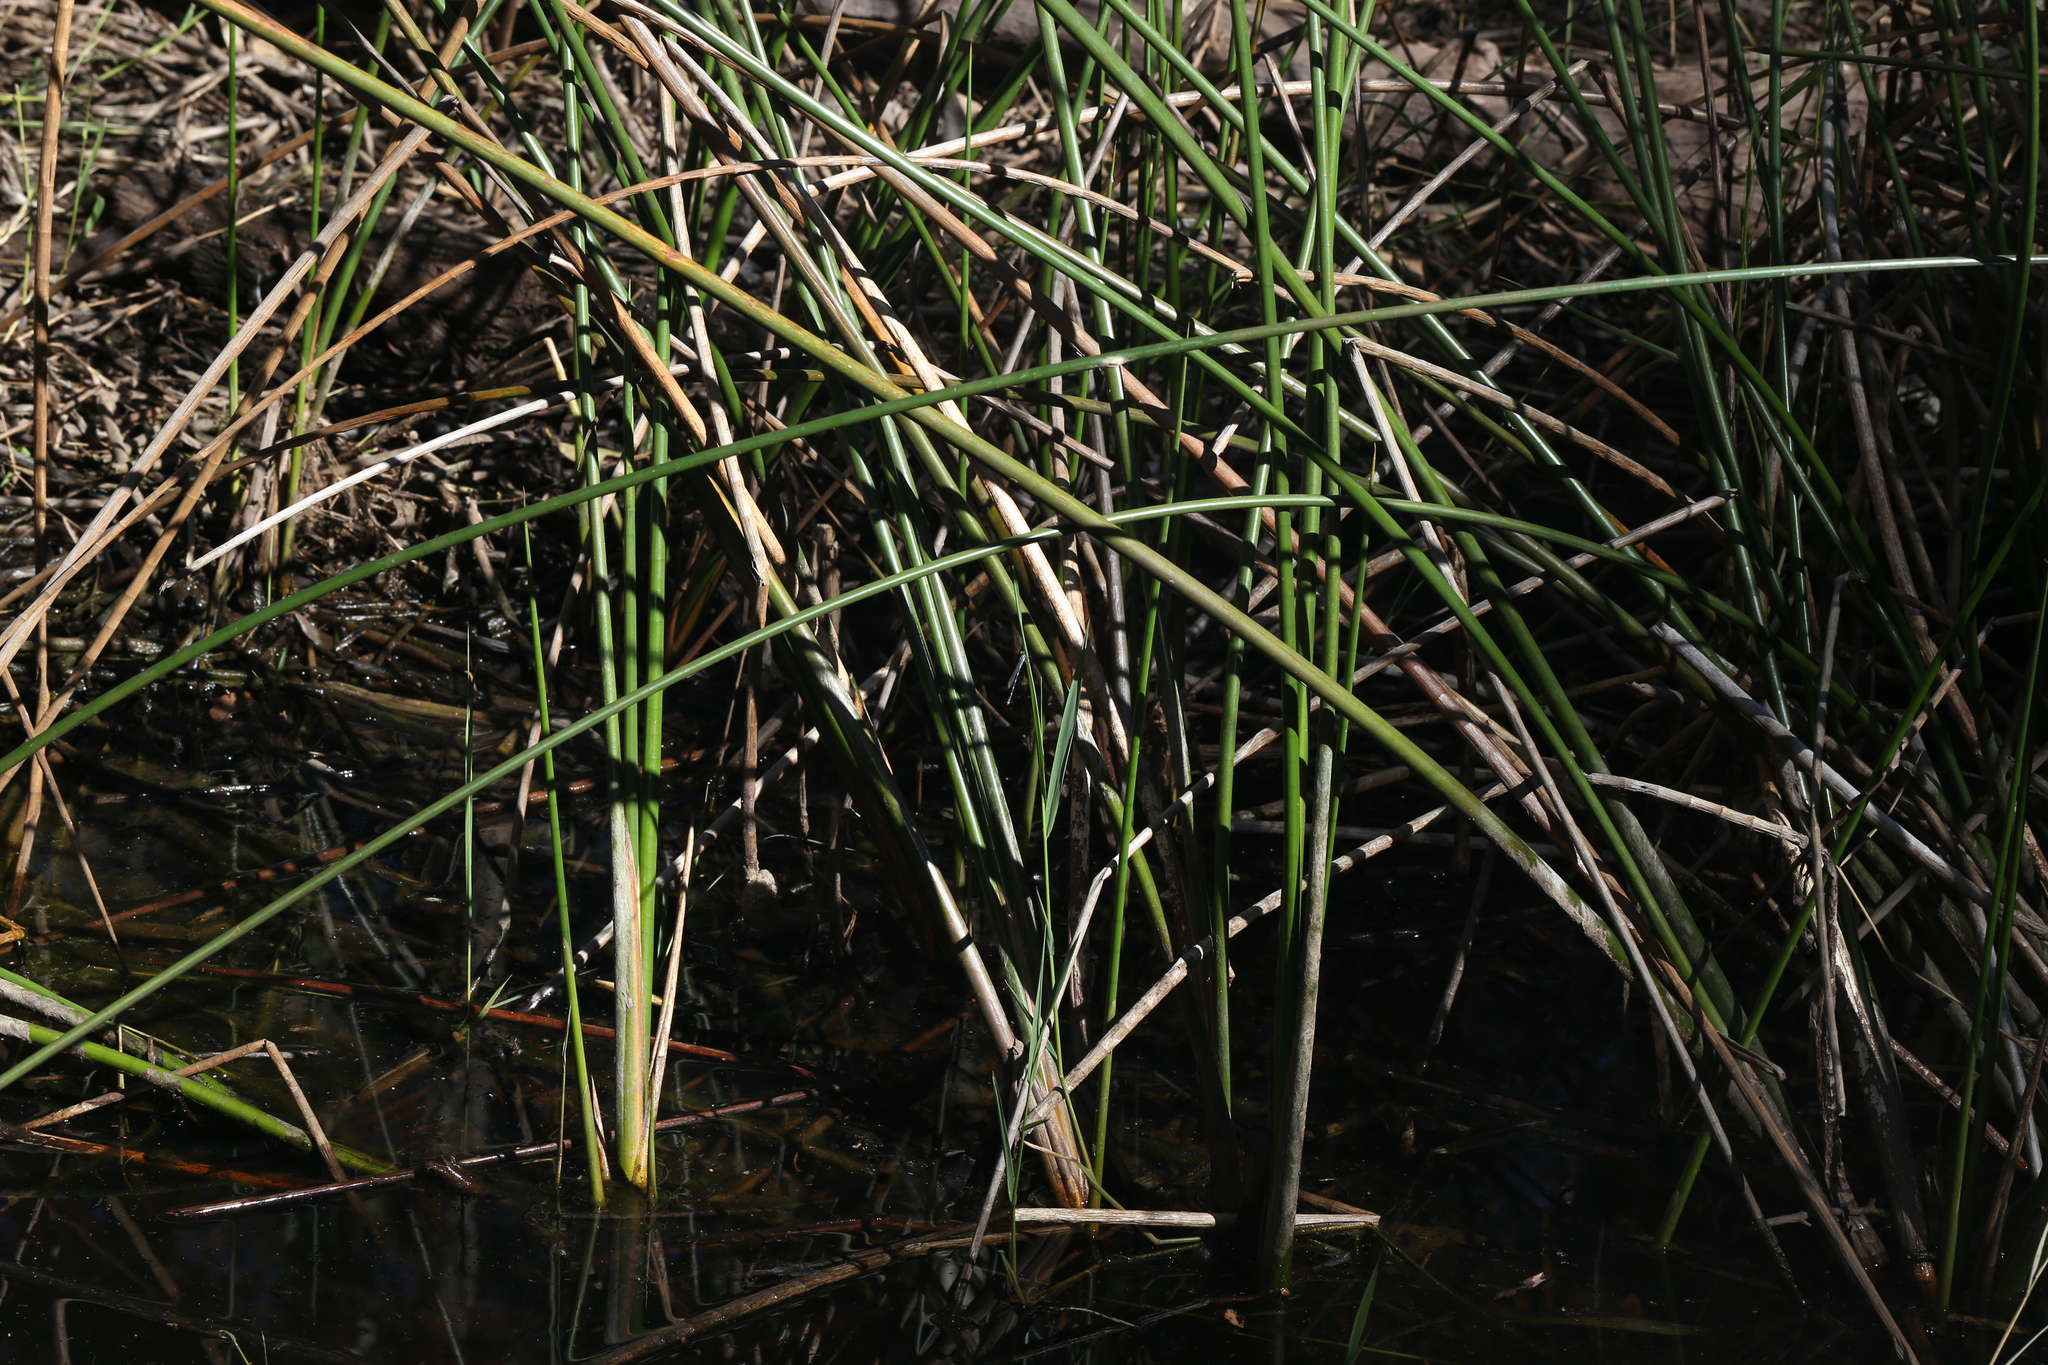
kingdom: Animalia
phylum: Arthropoda
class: Insecta
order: Odonata
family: Lestidae
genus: Austrolestes
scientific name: Austrolestes leda
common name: Wandering ringtail
